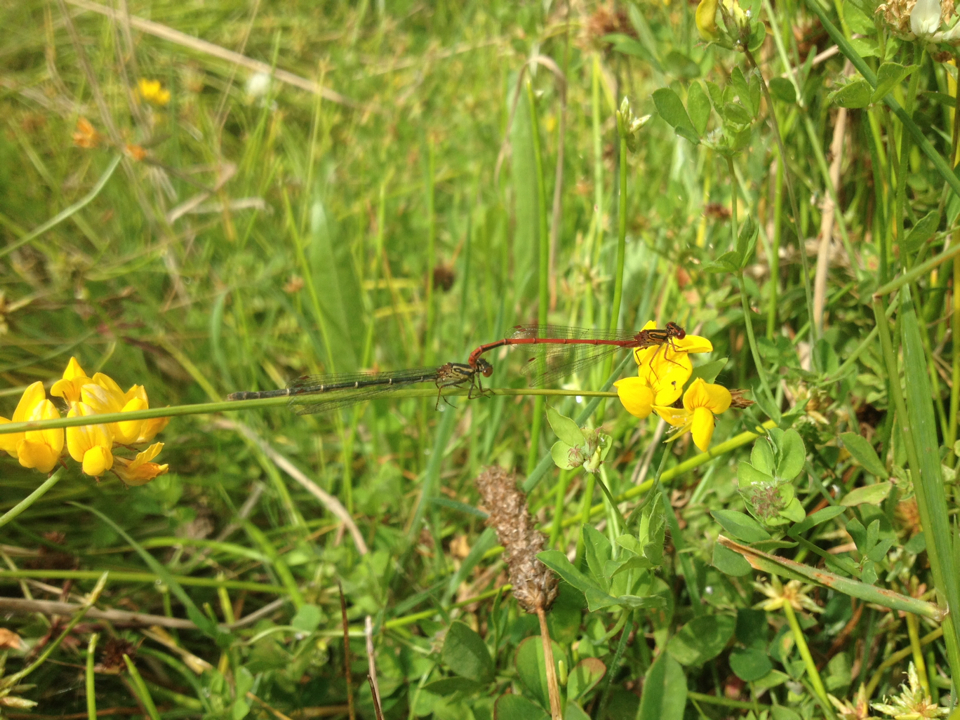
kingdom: Animalia
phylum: Arthropoda
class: Insecta
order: Odonata
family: Coenagrionidae
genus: Xanthocnemis
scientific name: Xanthocnemis zealandica
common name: Common redcoat damselfly
